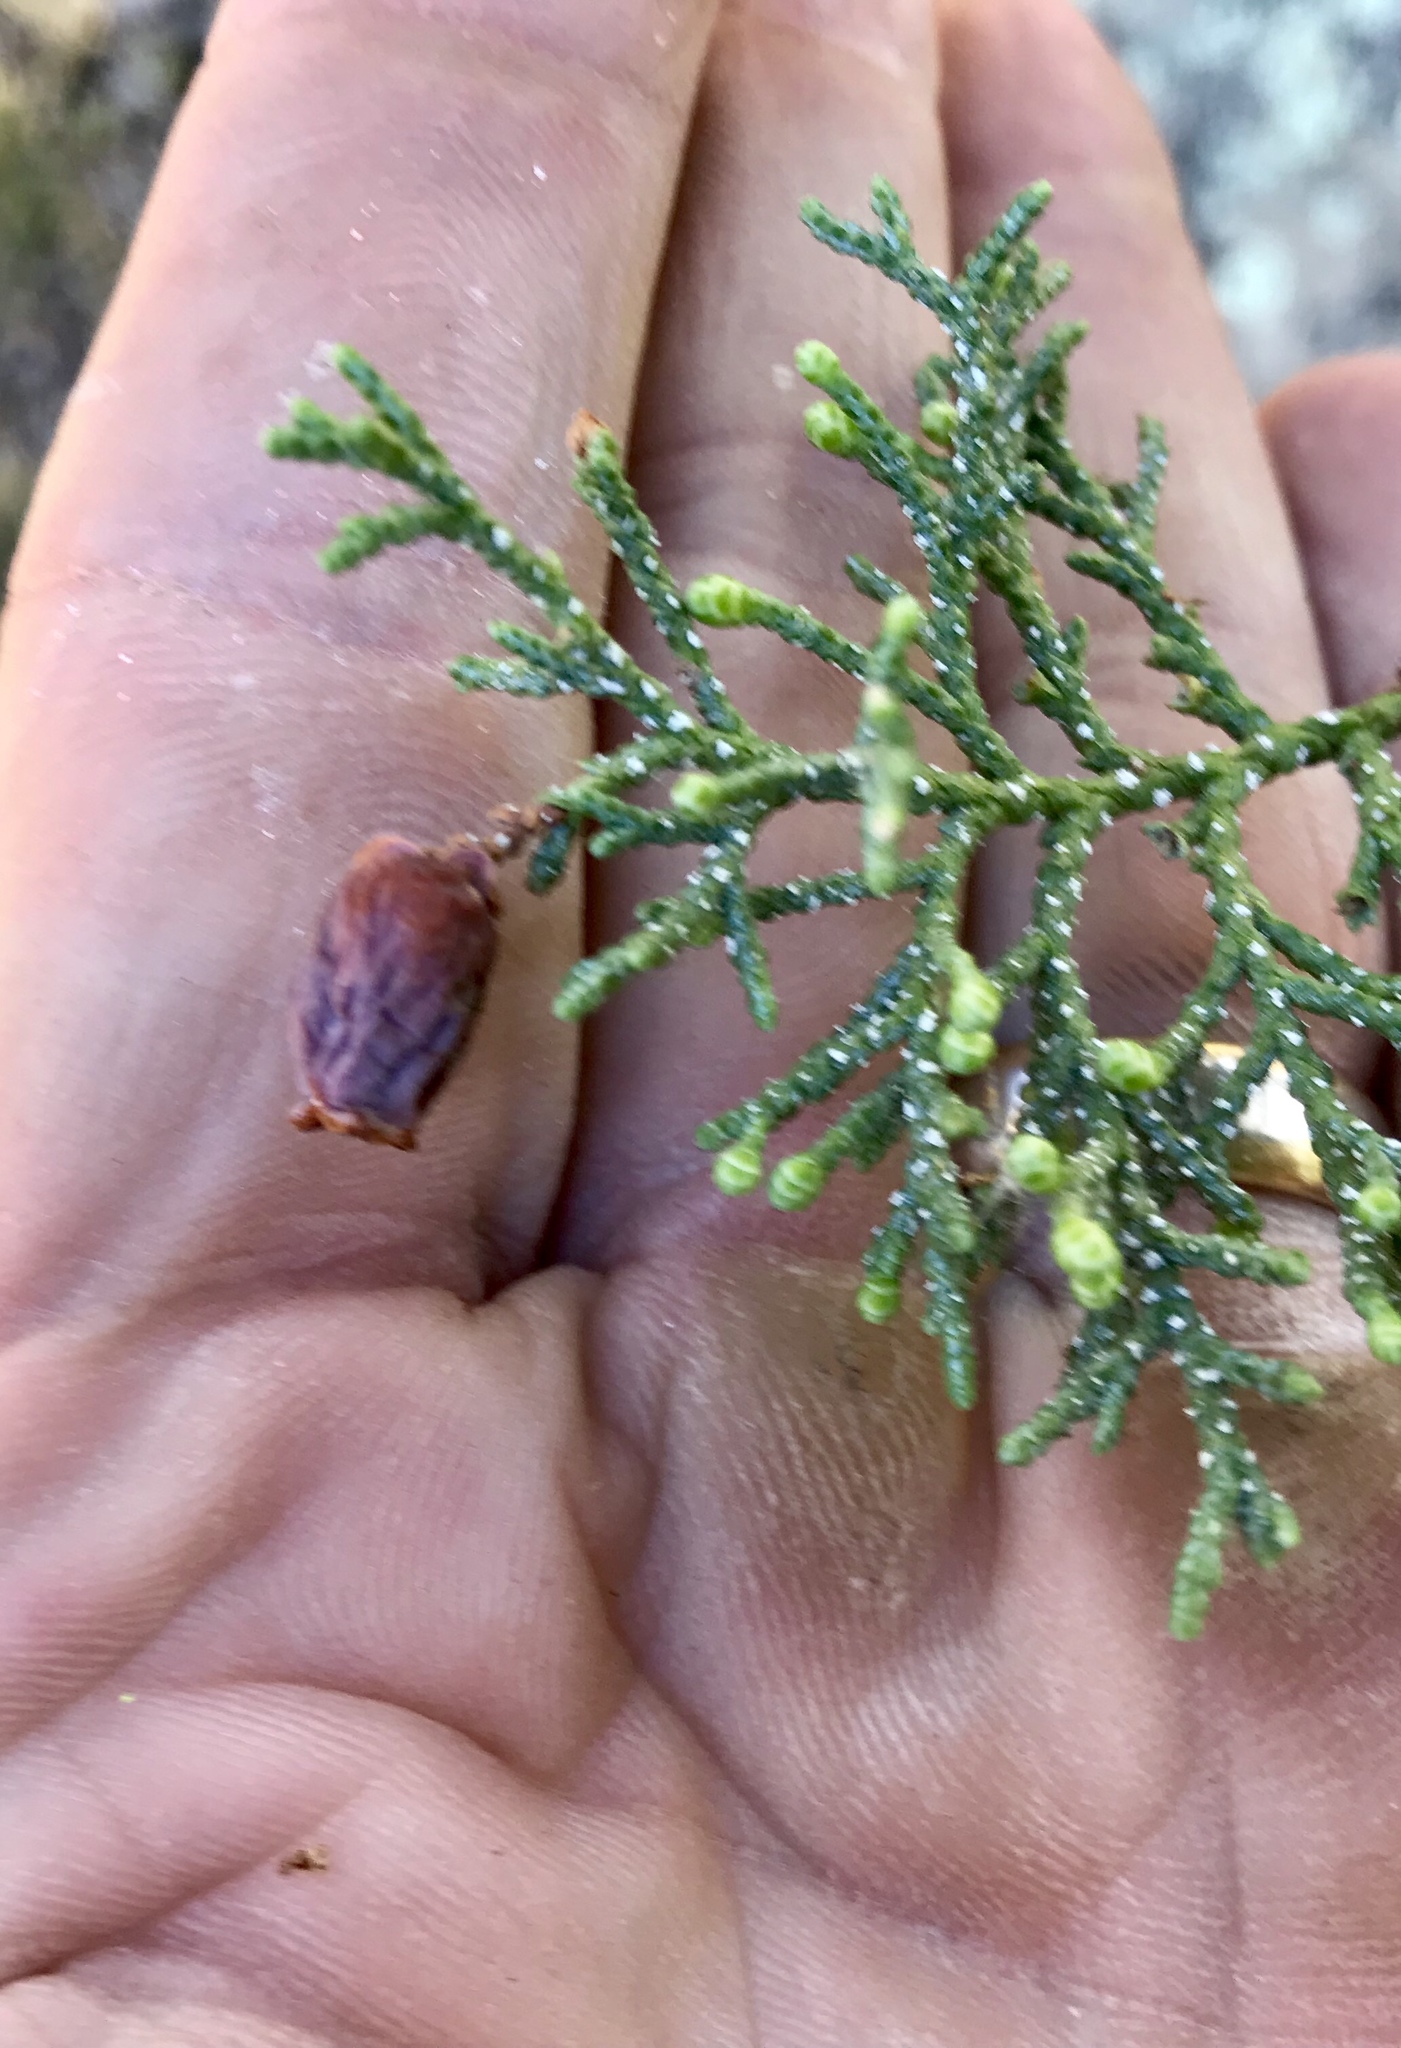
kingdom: Animalia
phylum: Arthropoda
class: Insecta
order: Diptera
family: Cecidomyiidae
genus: Walshomyia
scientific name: Walshomyia juniperina
